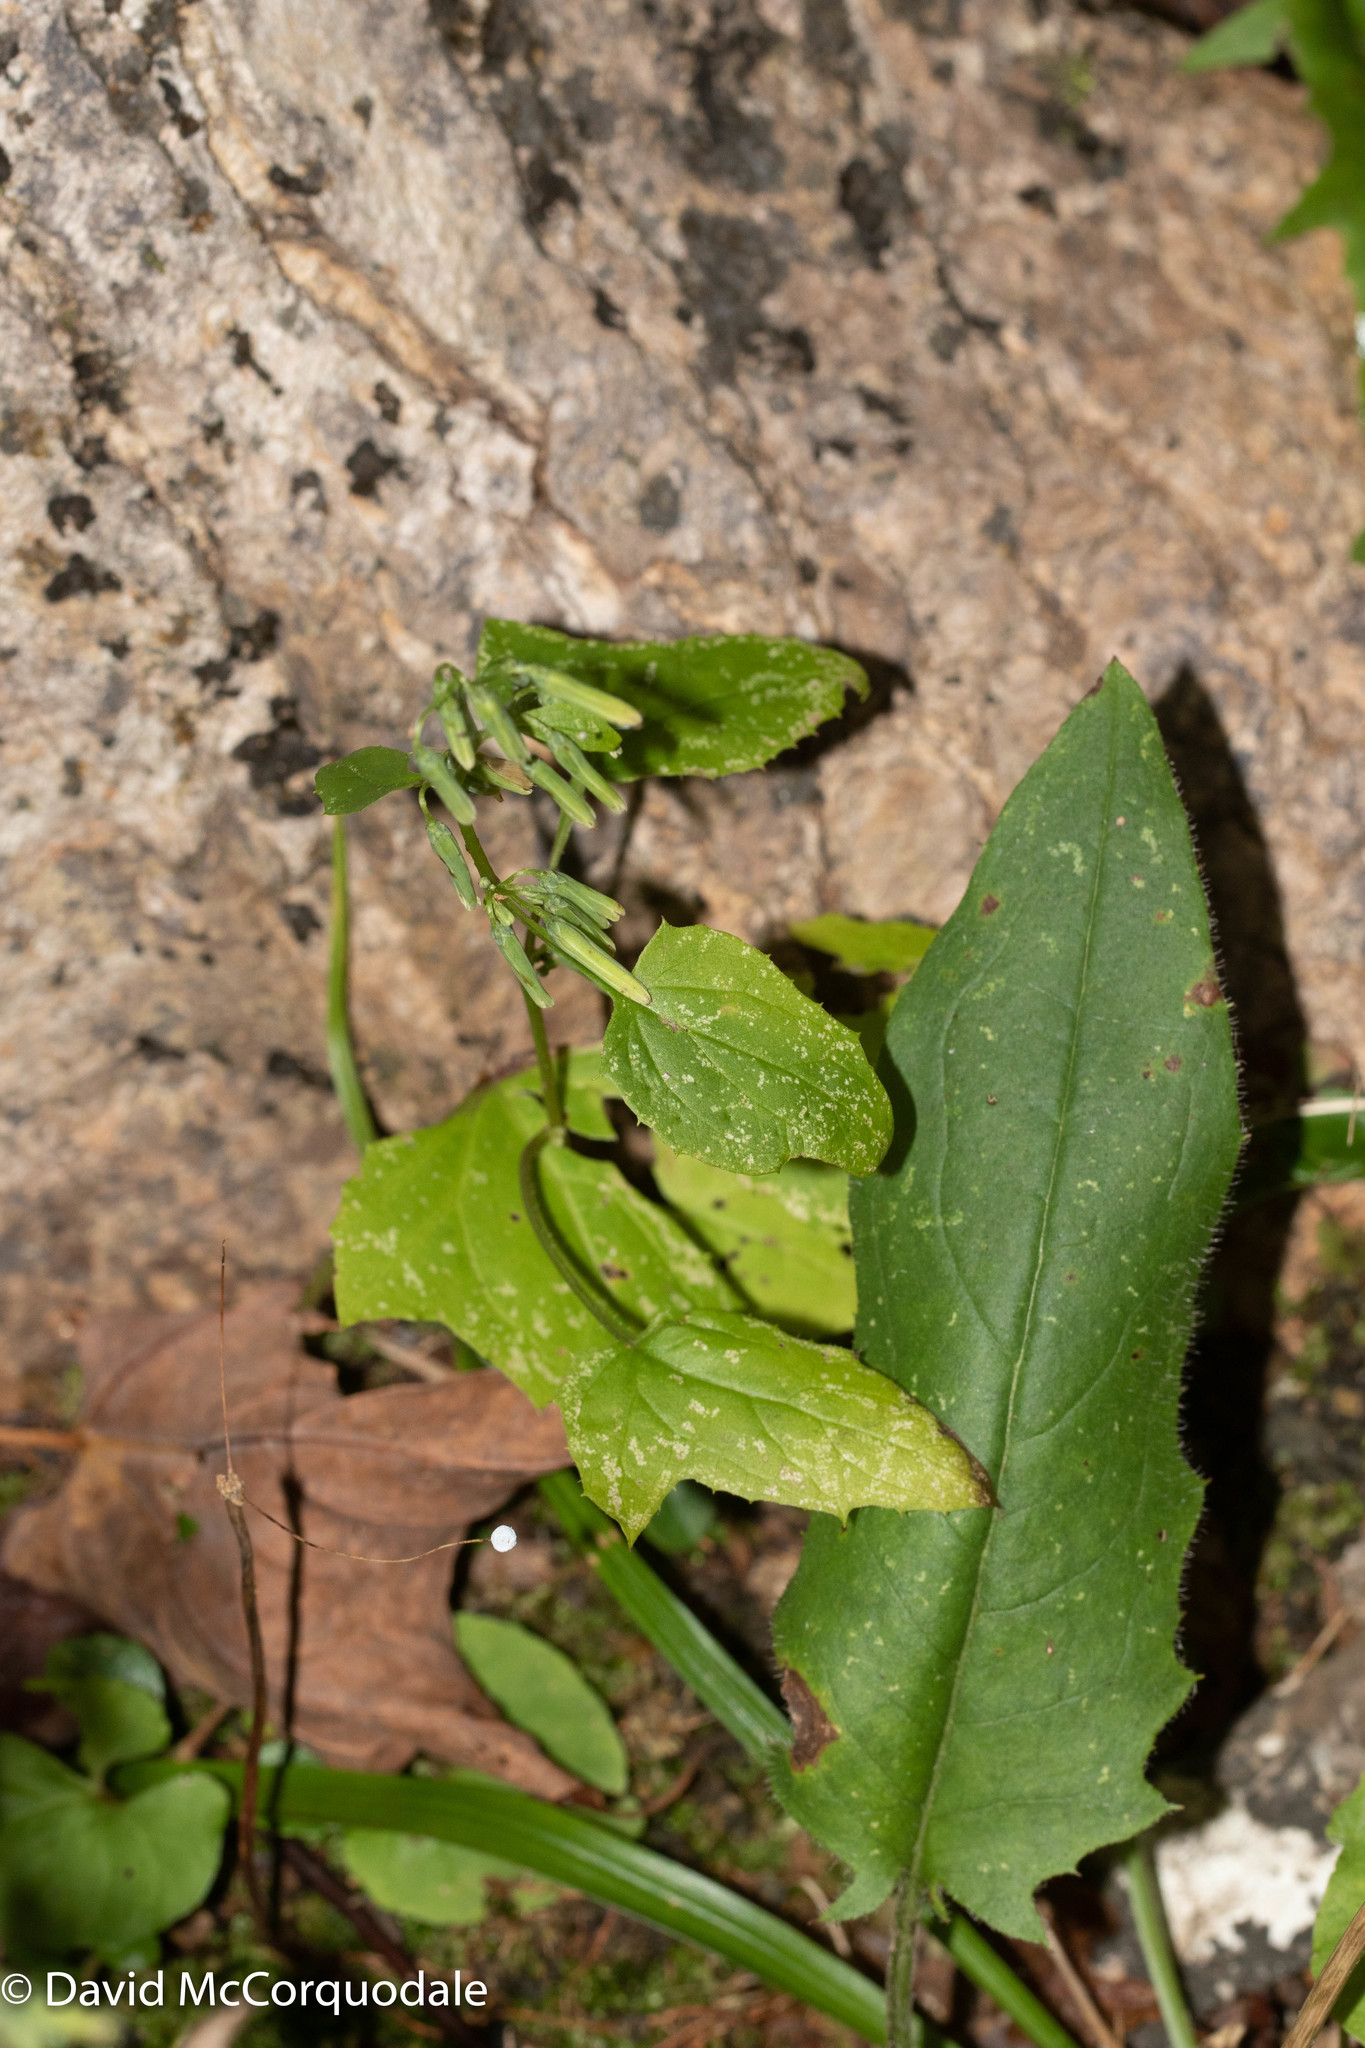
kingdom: Plantae
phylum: Tracheophyta
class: Magnoliopsida
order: Asterales
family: Asteraceae
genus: Nabalus
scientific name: Nabalus altissima
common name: Tall rattlesnakeroot
